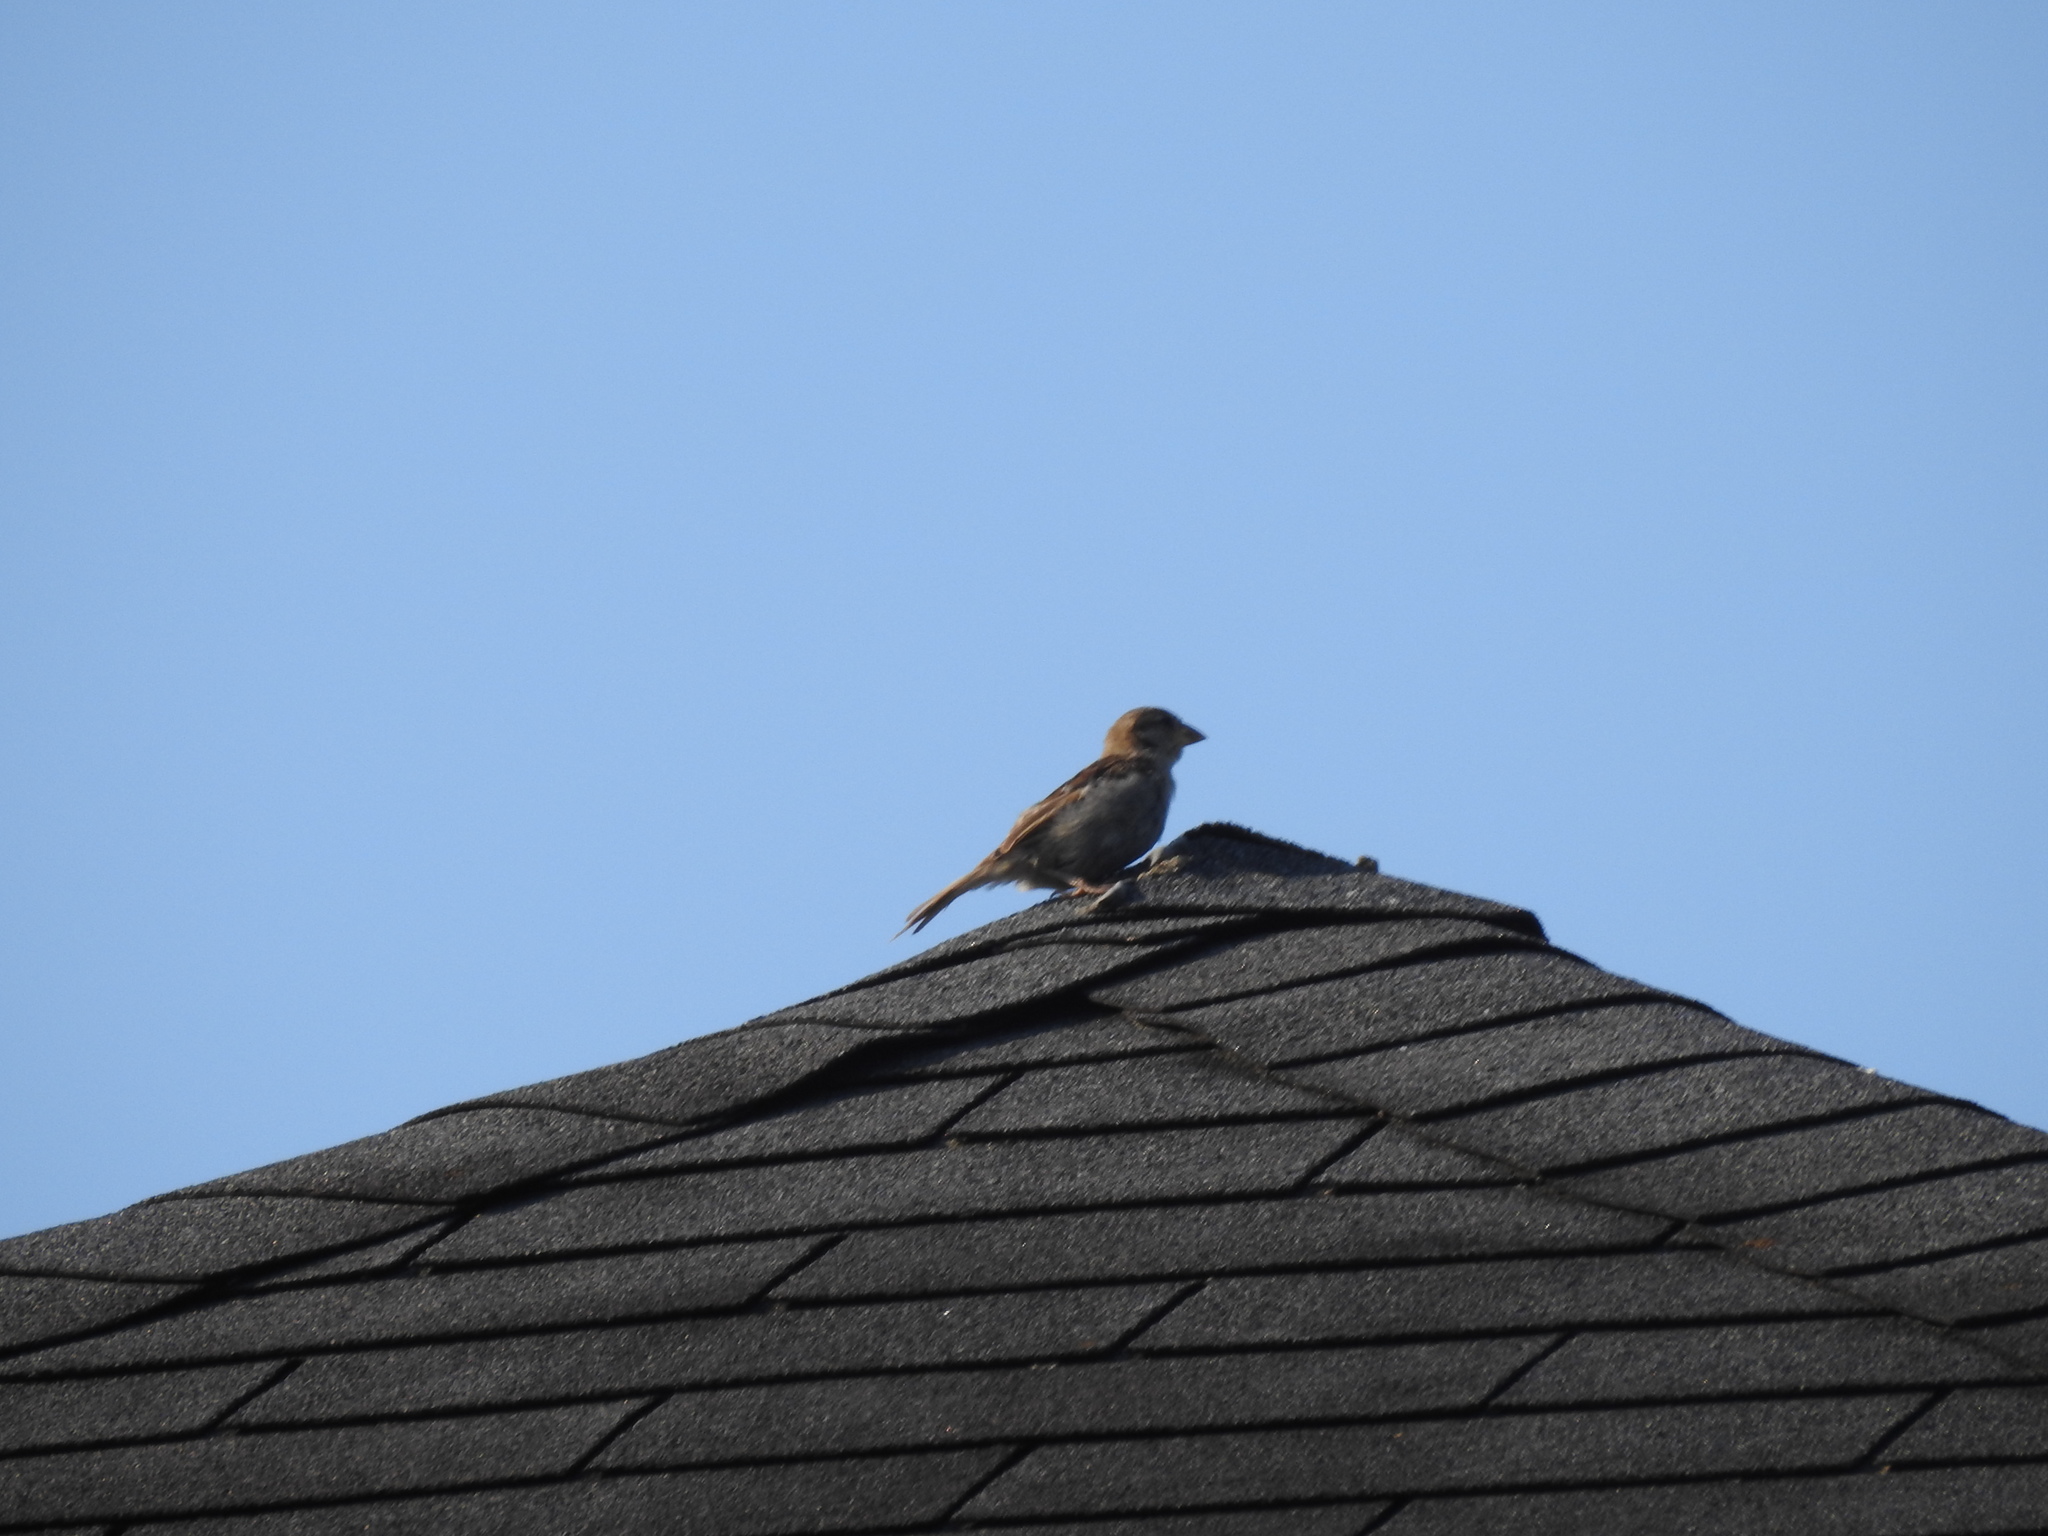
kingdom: Animalia
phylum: Chordata
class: Aves
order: Passeriformes
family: Passeridae
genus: Passer
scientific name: Passer domesticus
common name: House sparrow
